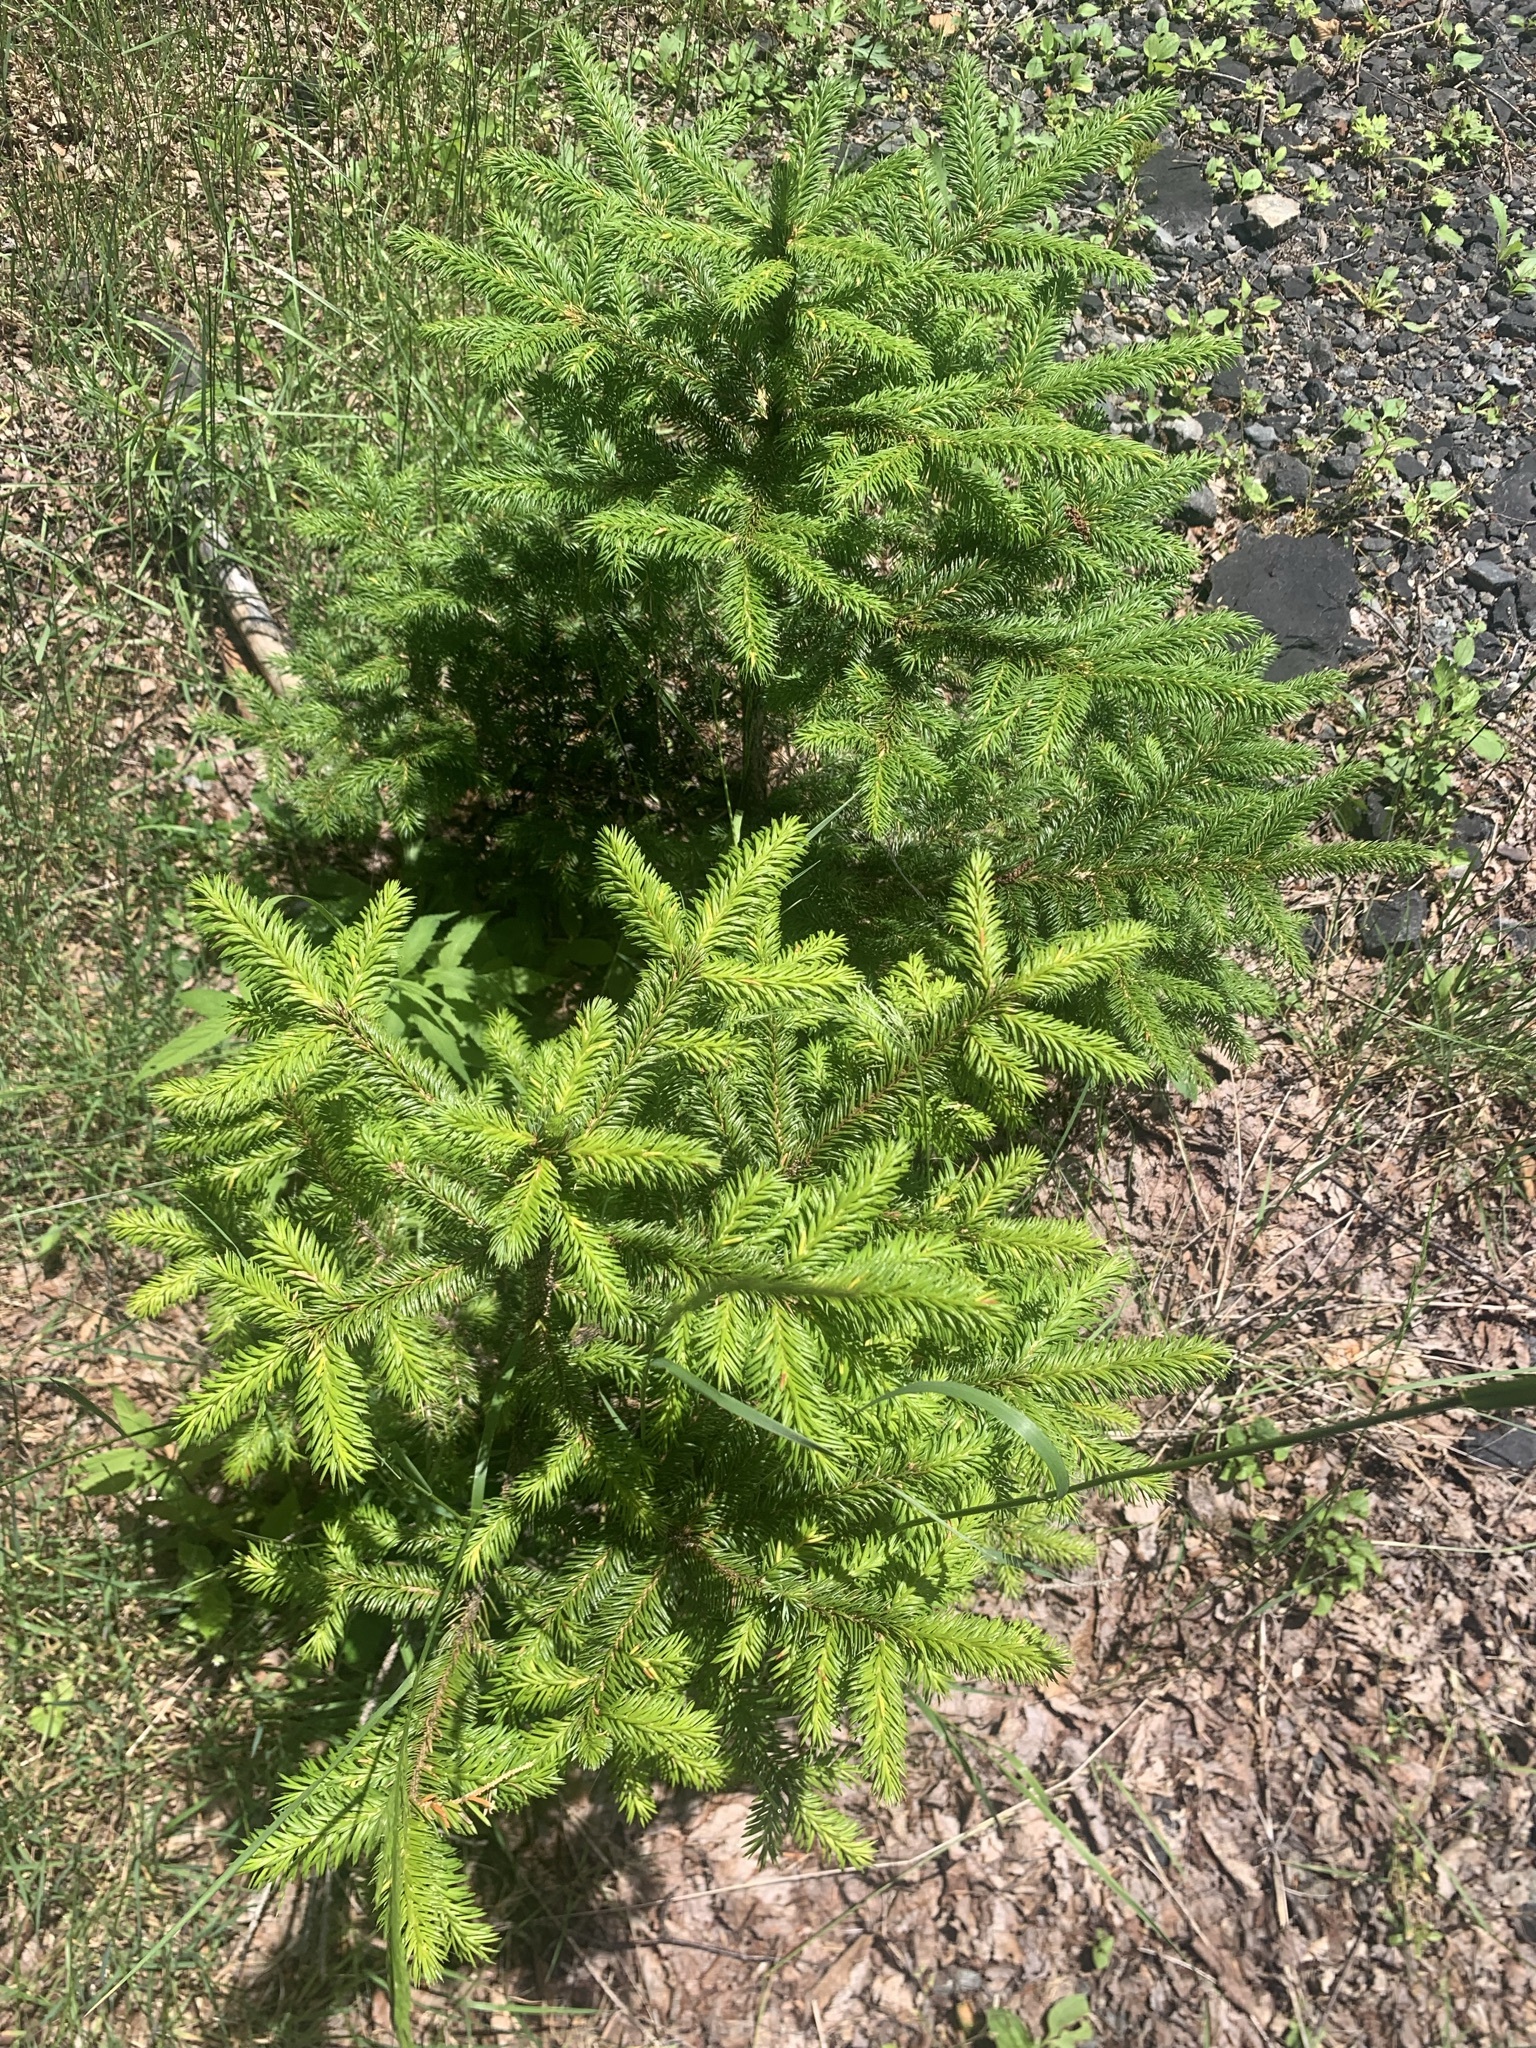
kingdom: Plantae
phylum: Tracheophyta
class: Pinopsida
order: Pinales
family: Pinaceae
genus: Picea
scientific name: Picea torano
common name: Tigertail spruce
